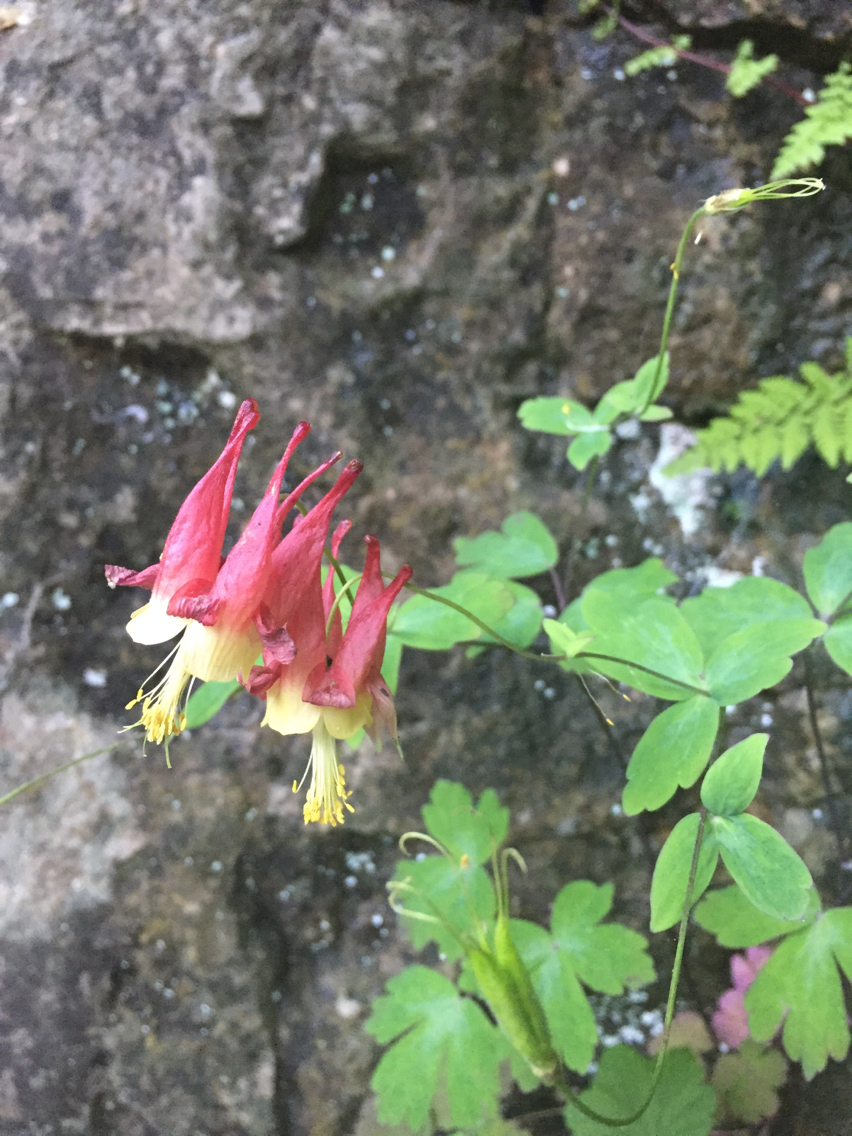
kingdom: Plantae
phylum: Tracheophyta
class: Magnoliopsida
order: Ranunculales
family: Ranunculaceae
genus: Aquilegia
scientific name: Aquilegia canadensis
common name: American columbine
